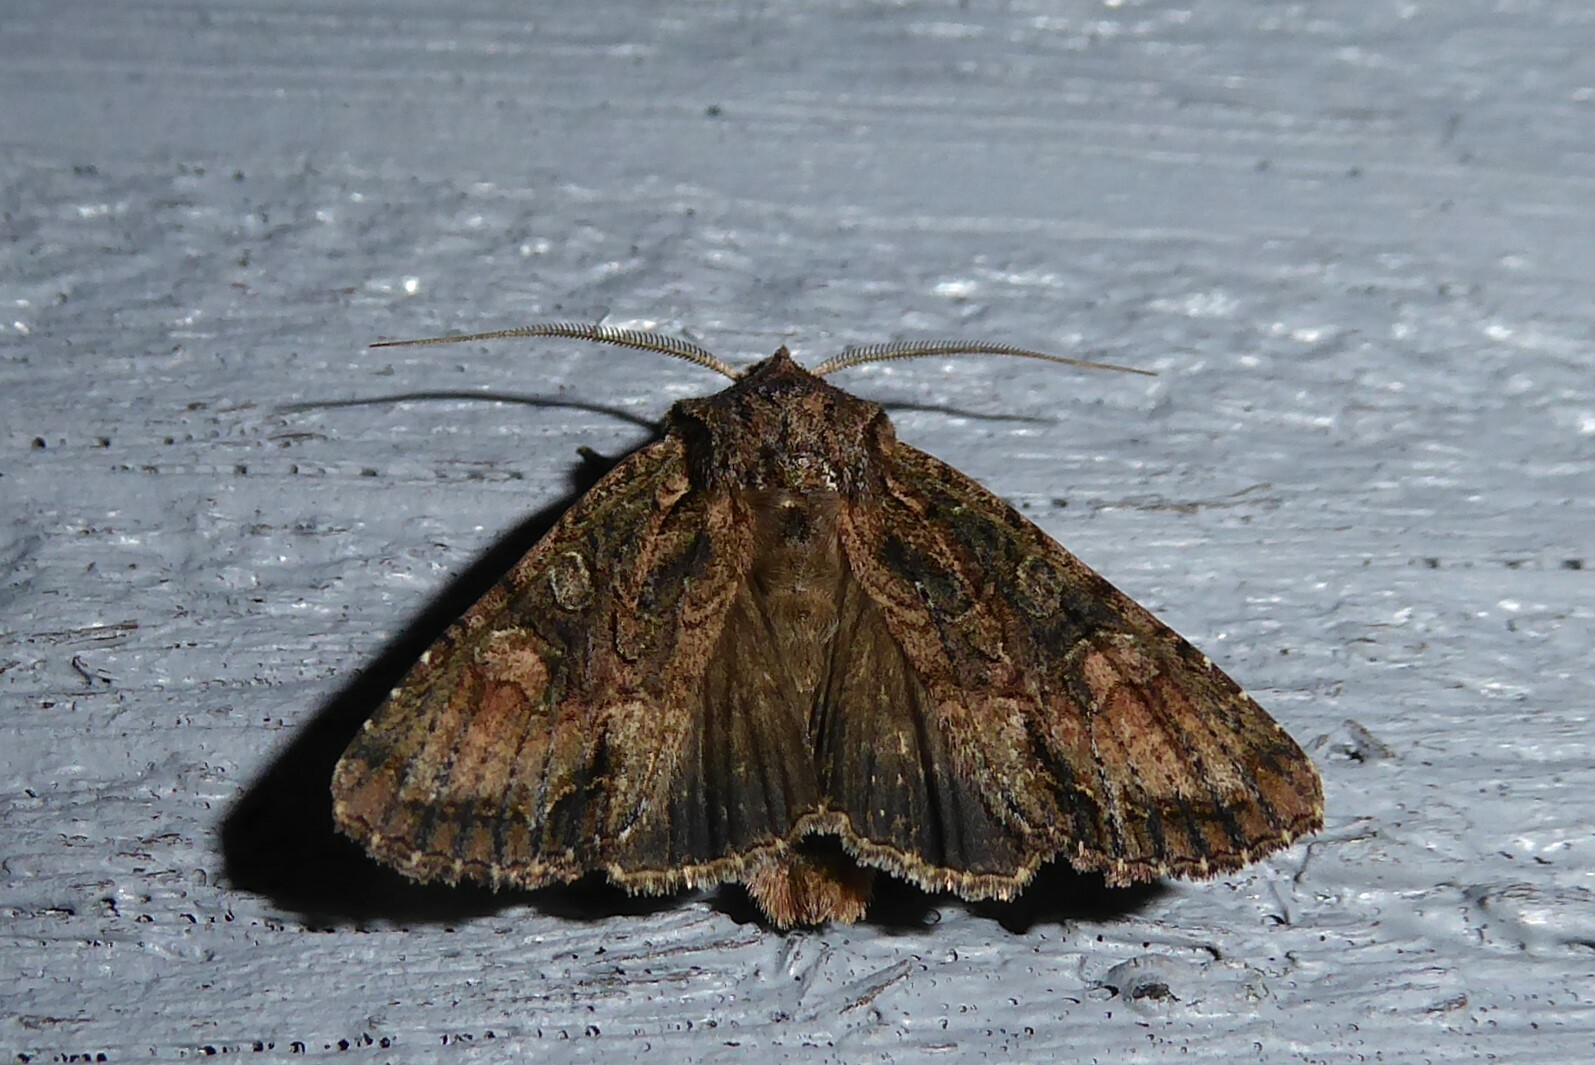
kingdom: Animalia
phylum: Arthropoda
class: Insecta
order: Lepidoptera
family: Noctuidae
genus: Ichneutica
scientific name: Ichneutica mutans
